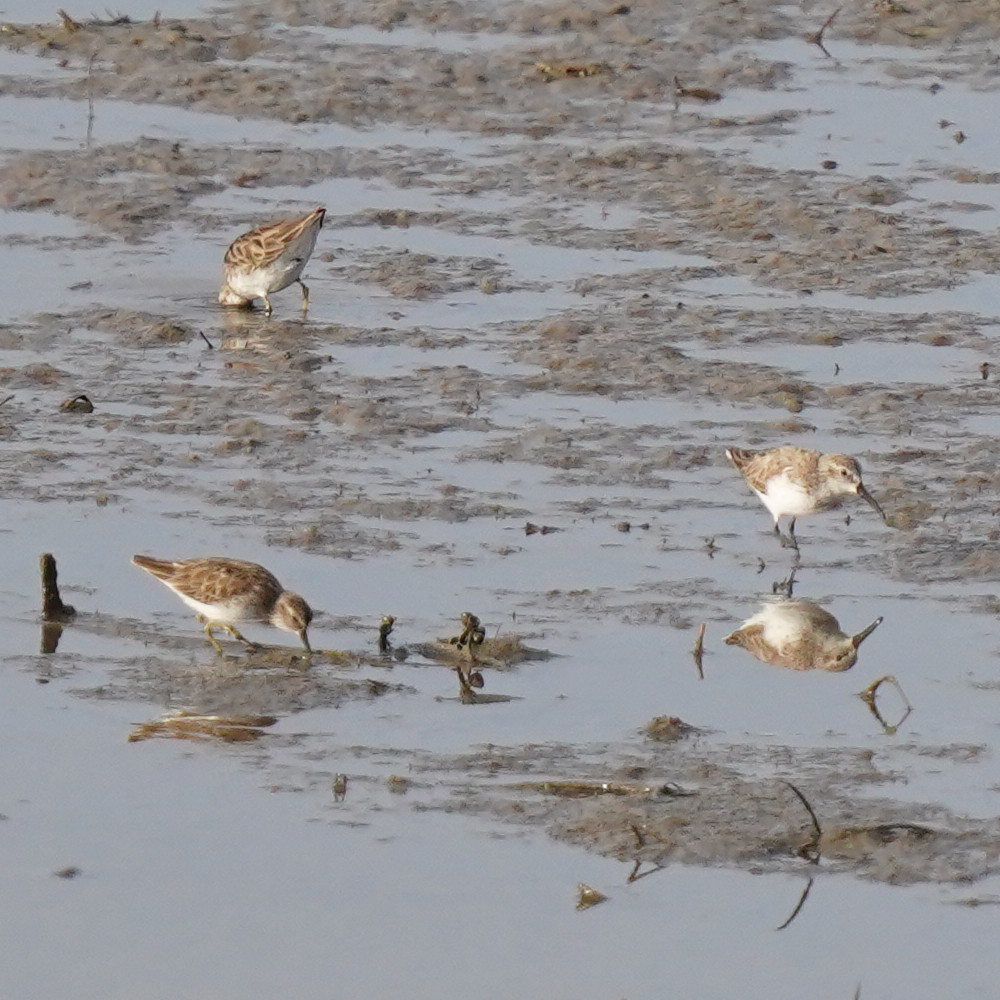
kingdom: Animalia
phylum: Chordata
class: Aves
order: Charadriiformes
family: Scolopacidae
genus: Calidris
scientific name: Calidris minutilla
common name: Least sandpiper
